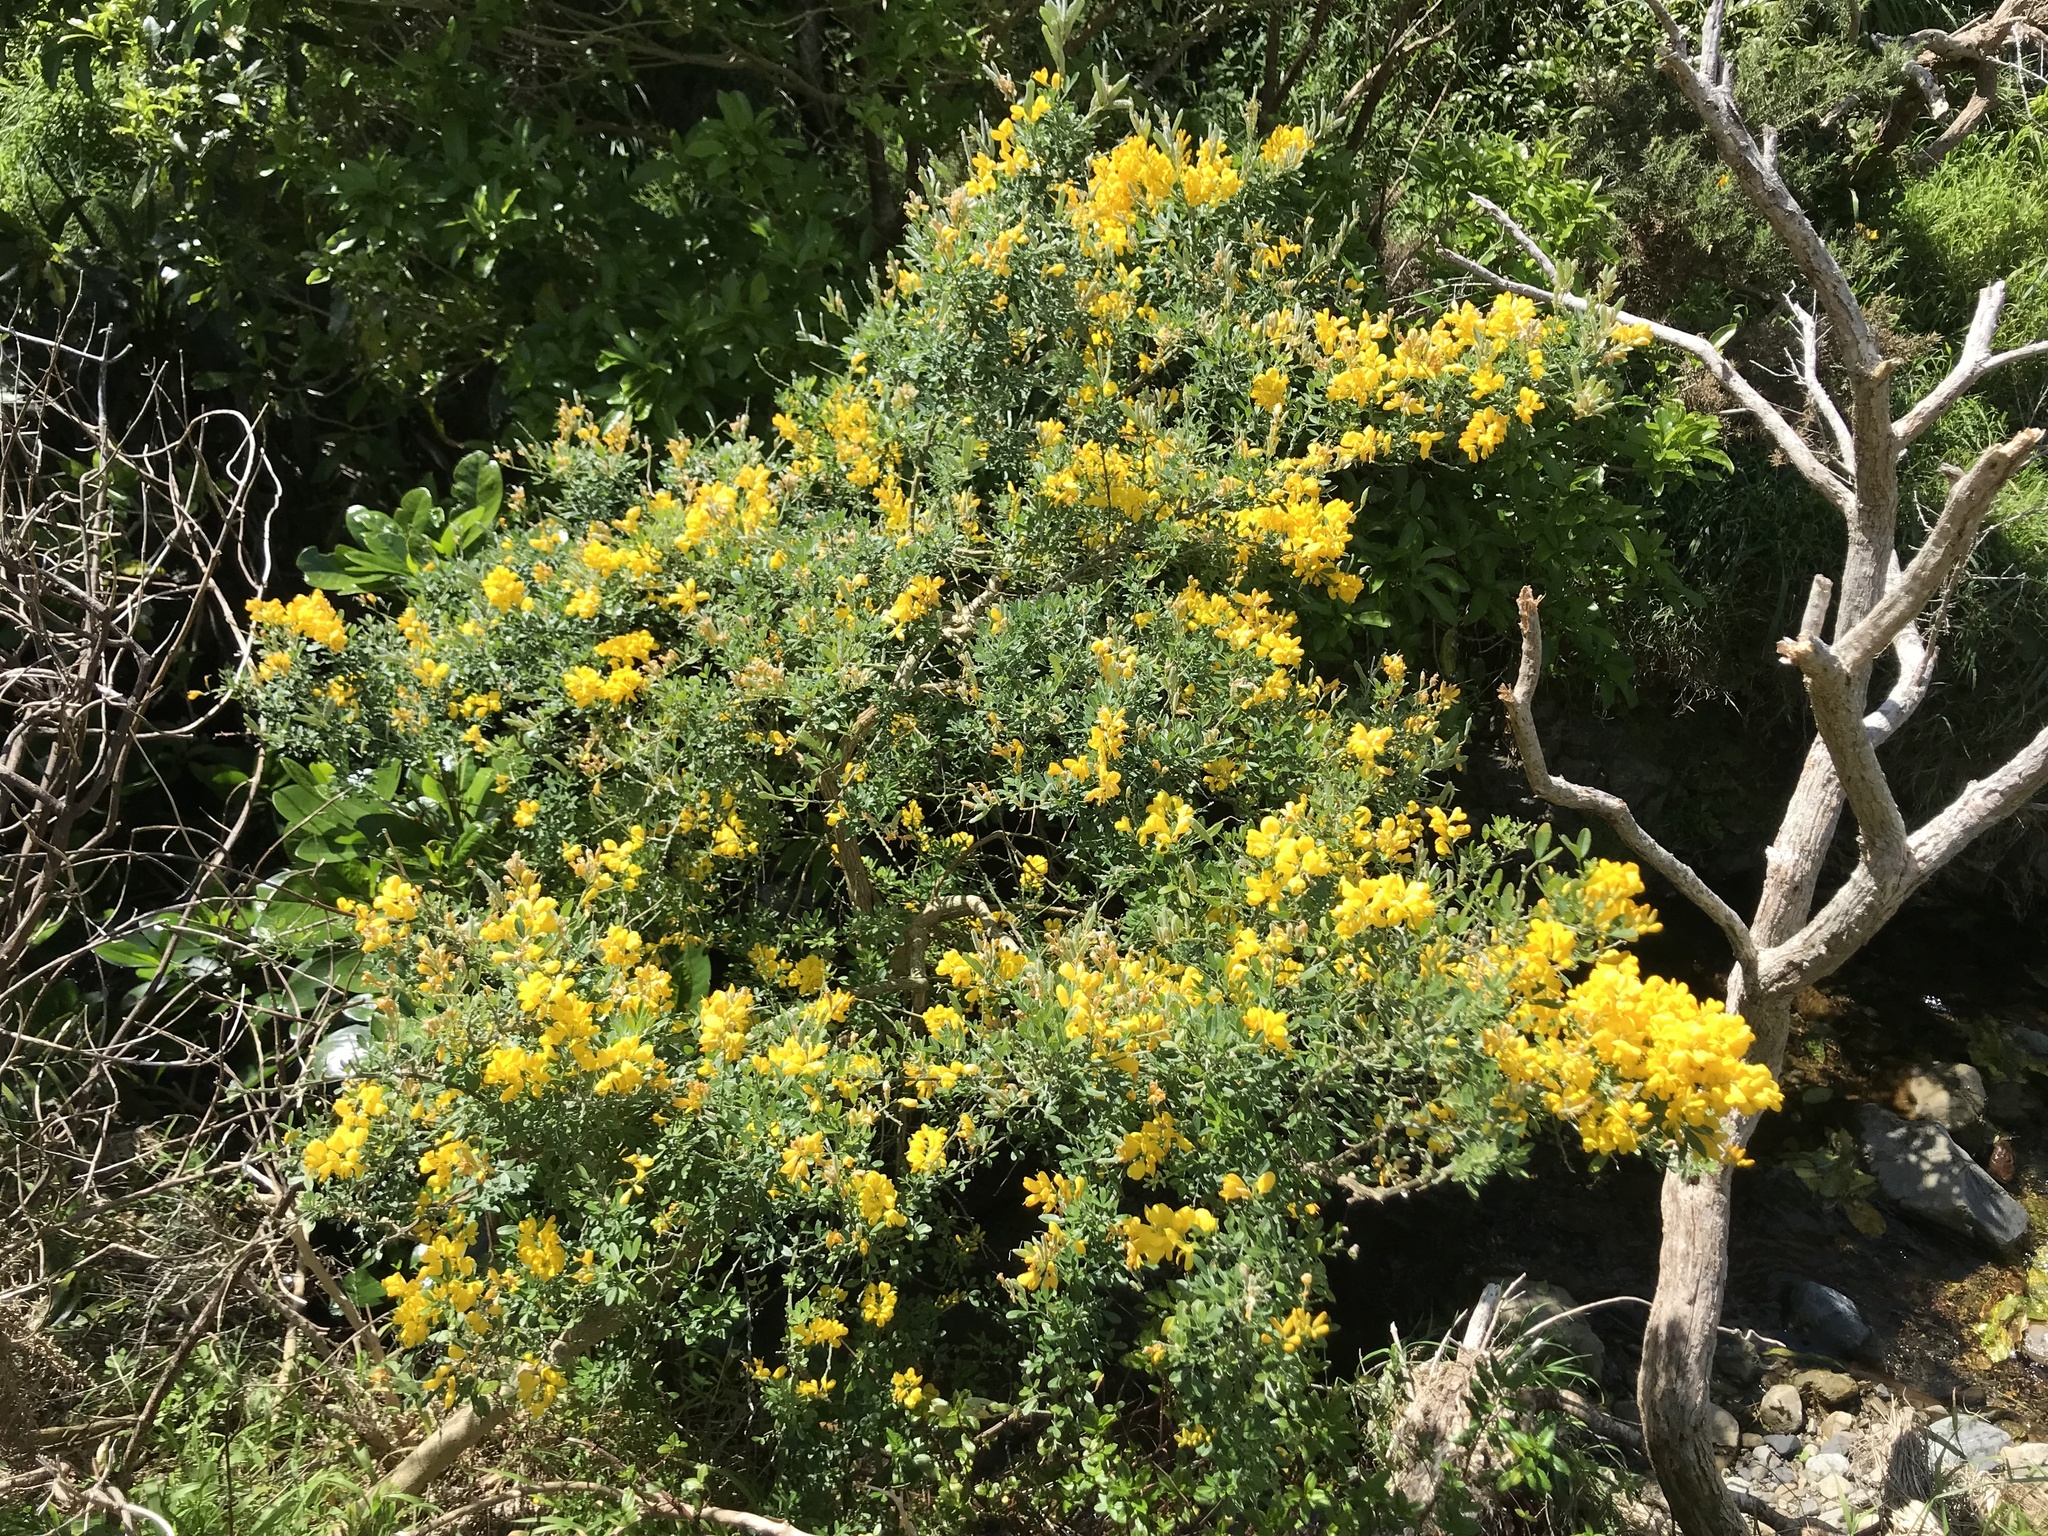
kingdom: Plantae
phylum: Tracheophyta
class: Magnoliopsida
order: Fabales
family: Fabaceae
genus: Genista
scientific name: Genista monspessulana
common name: Montpellier broom
